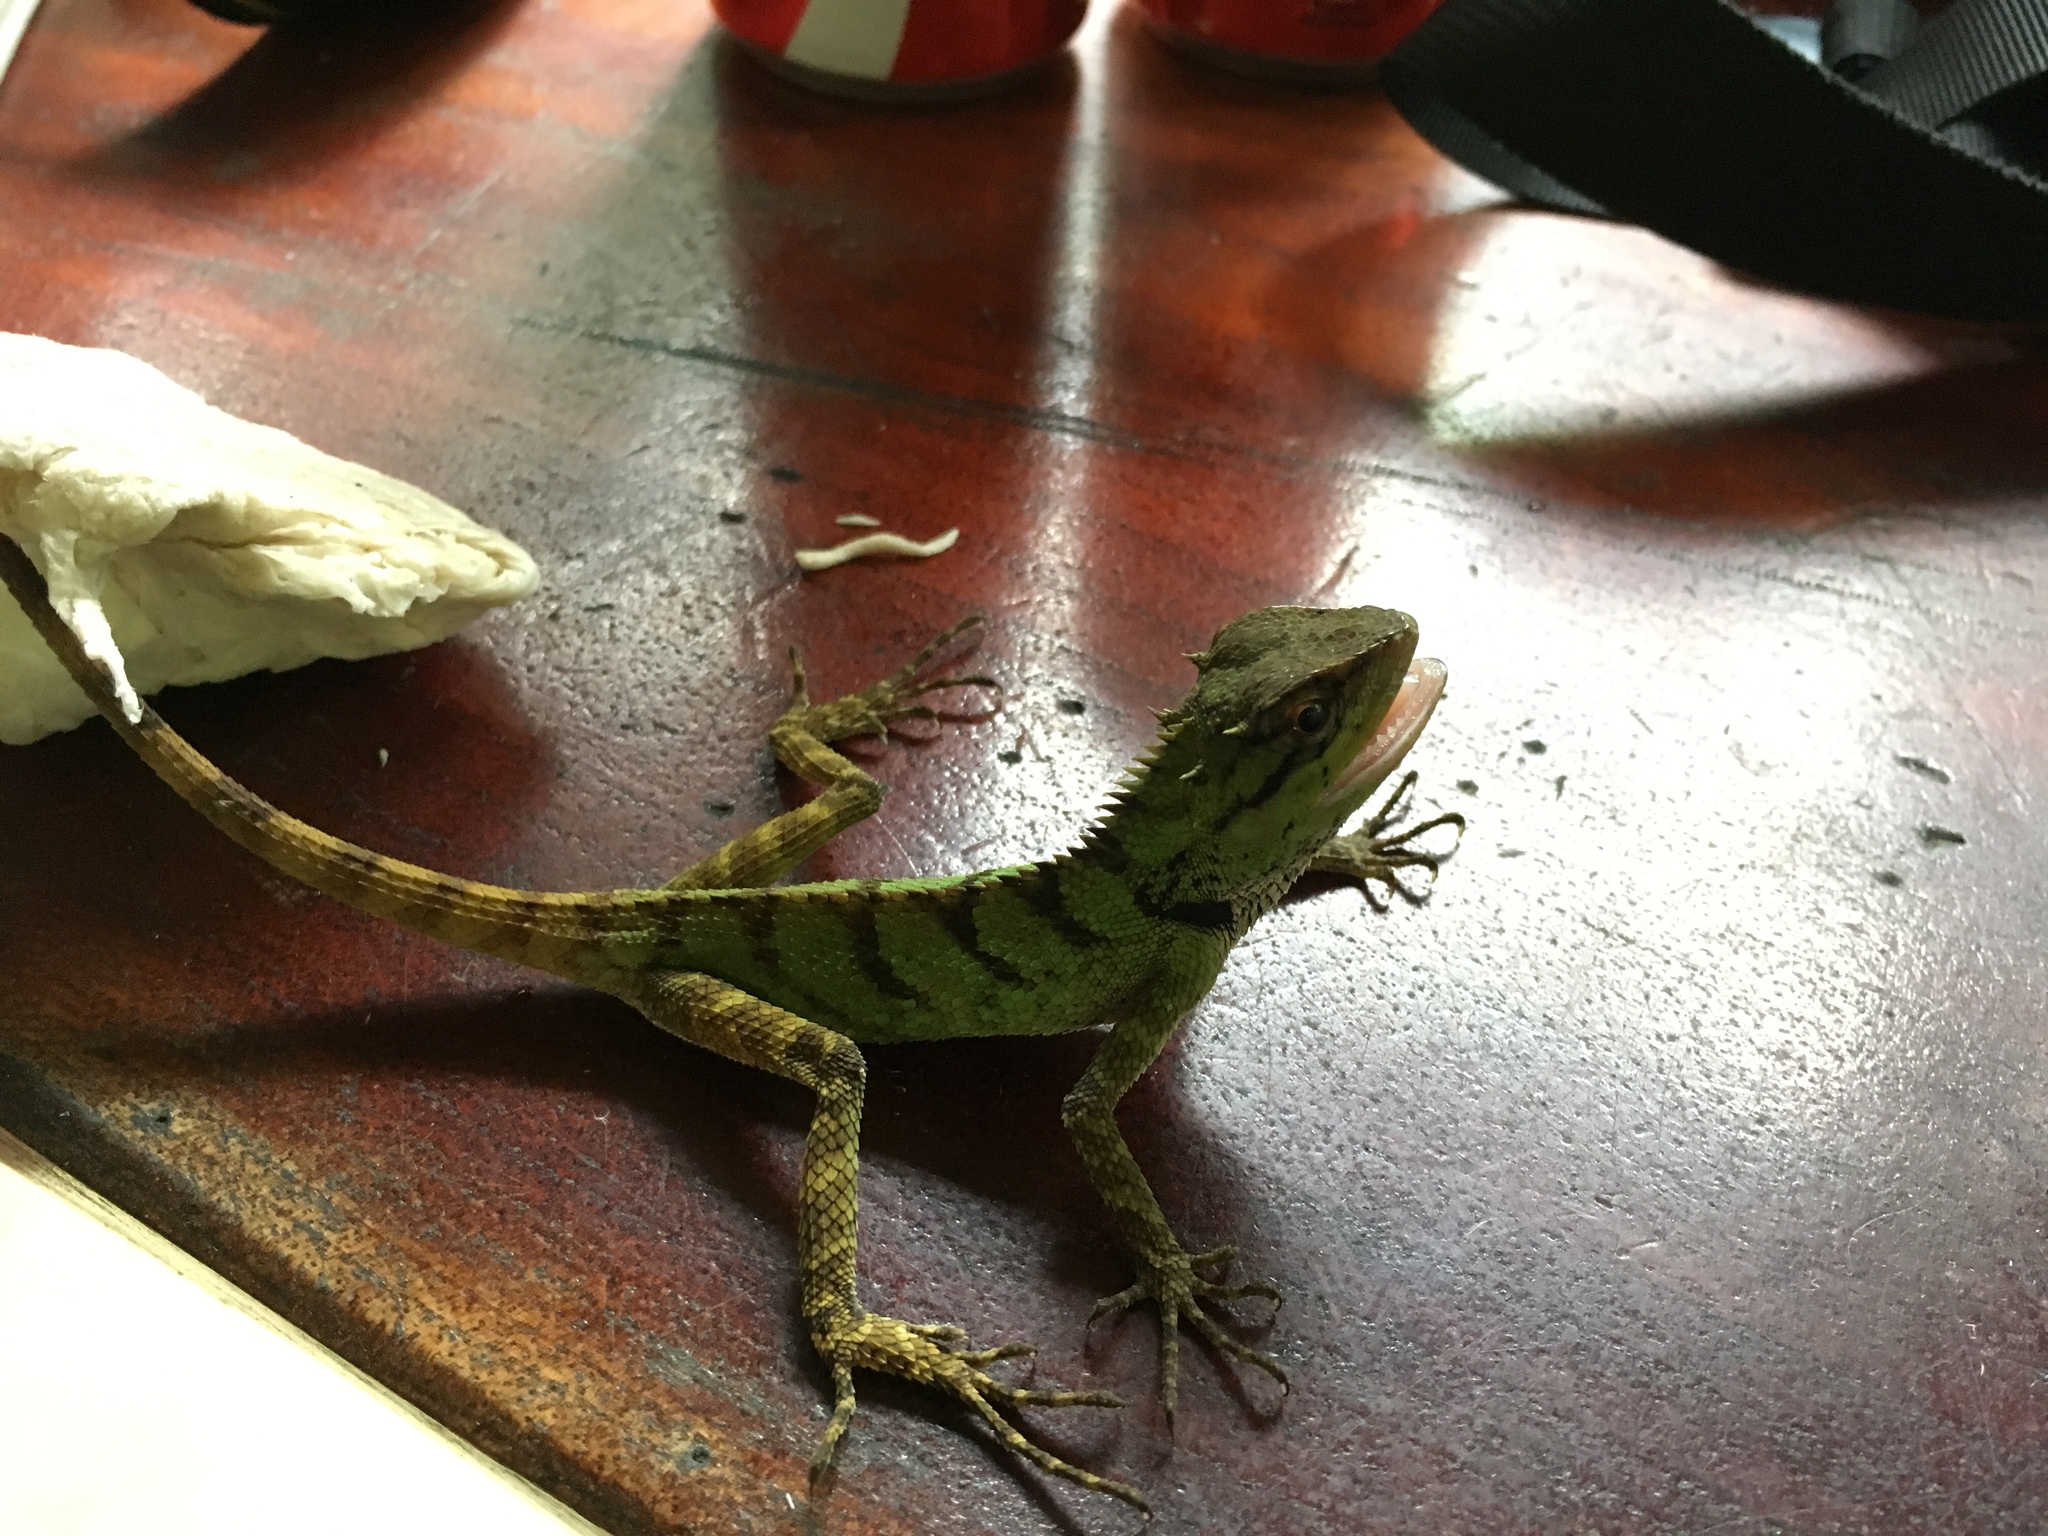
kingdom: Animalia
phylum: Chordata
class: Squamata
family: Agamidae
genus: Calotes
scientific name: Calotes emma
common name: Thailand bloodsucker
